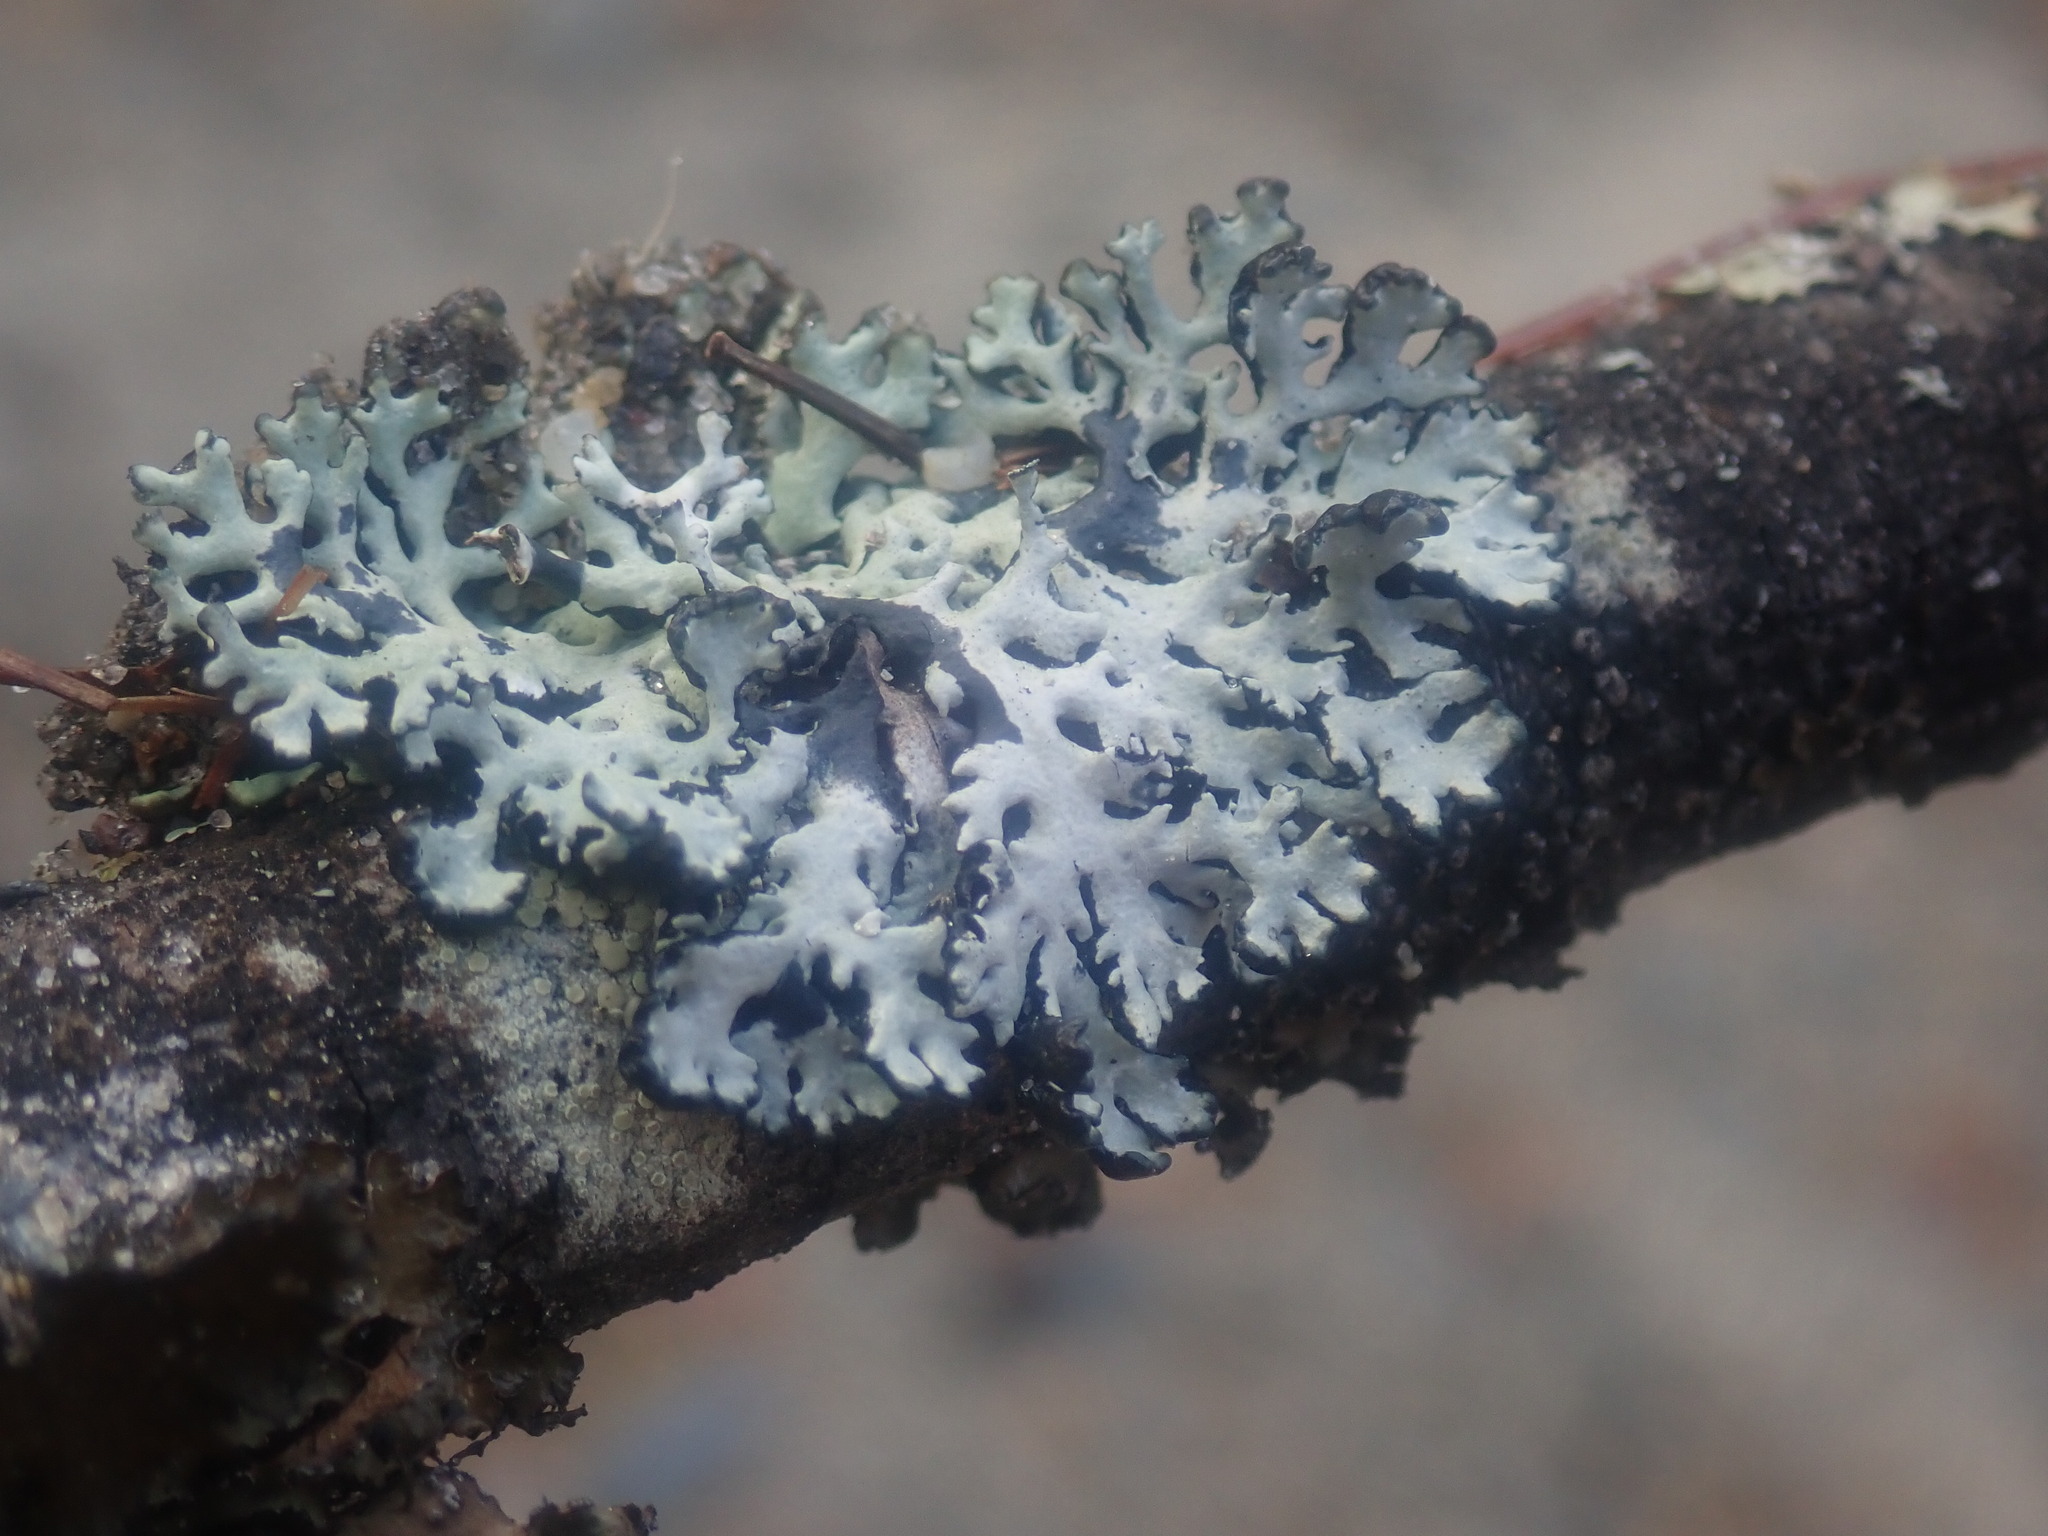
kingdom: Fungi
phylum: Ascomycota
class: Lecanoromycetes
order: Lecanorales
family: Parmeliaceae
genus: Hypogymnia
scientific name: Hypogymnia physodes
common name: Dark crottle
